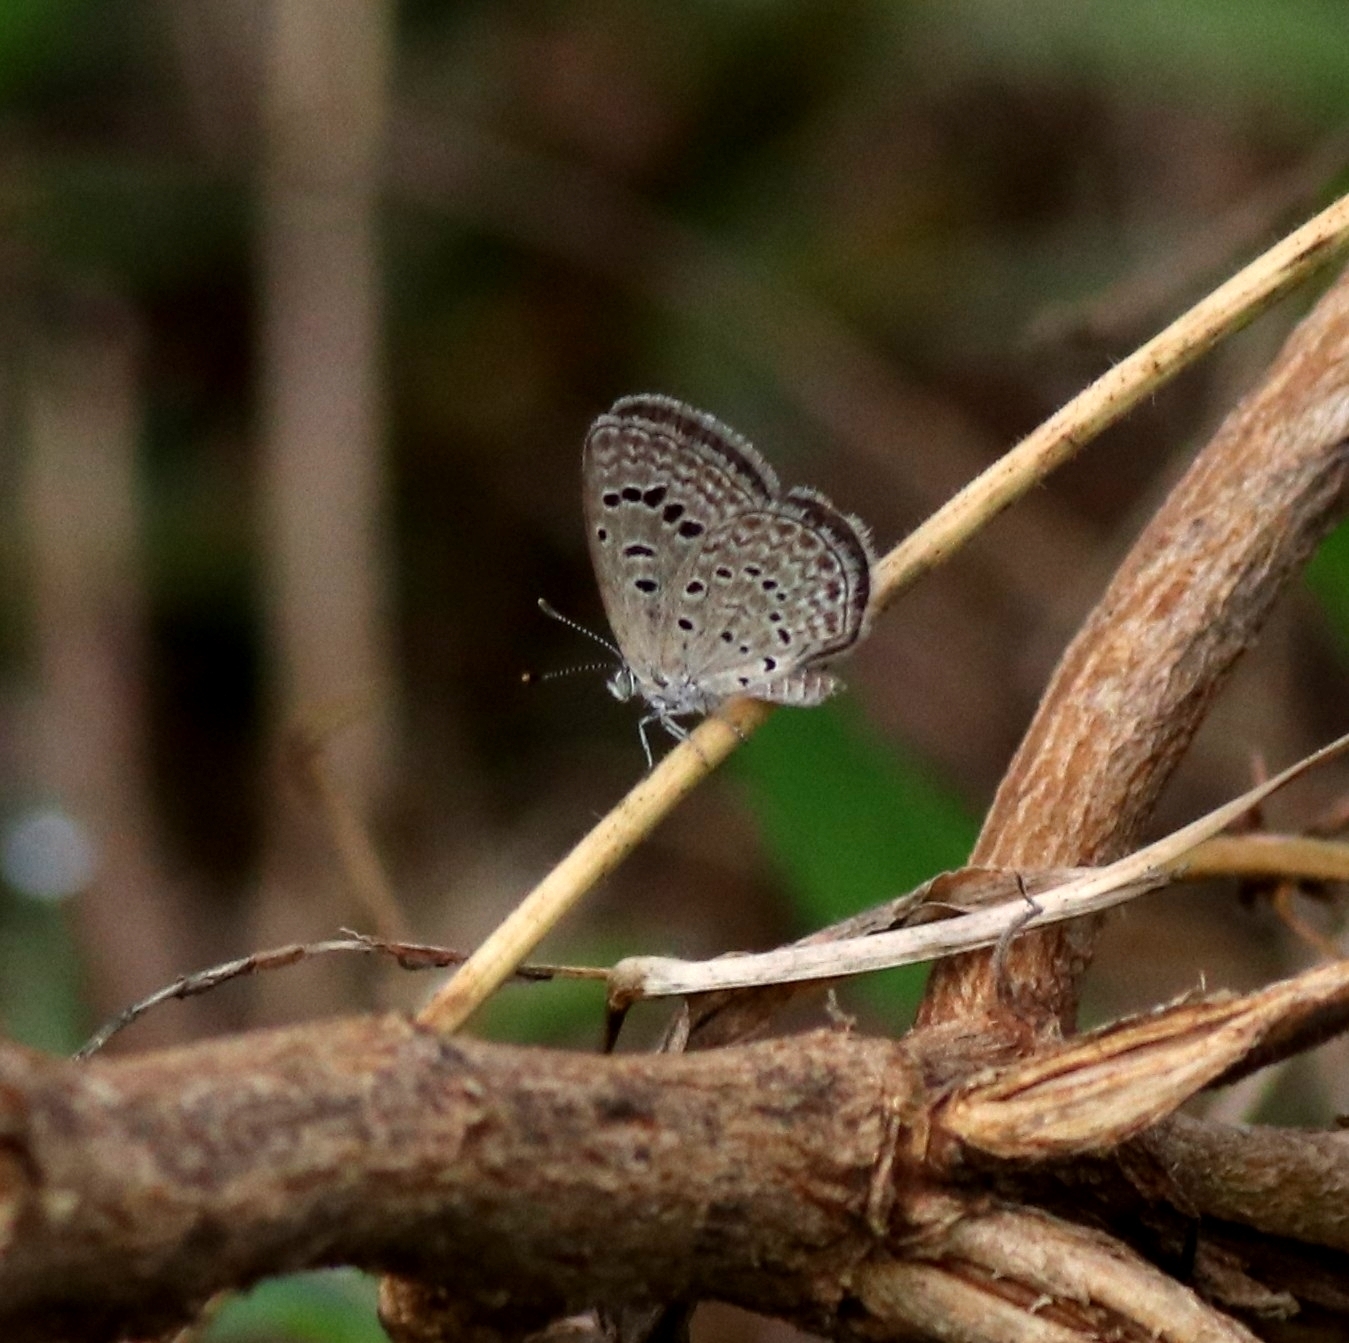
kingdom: Animalia
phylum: Arthropoda
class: Insecta
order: Lepidoptera
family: Lycaenidae
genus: Zizeeria
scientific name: Zizeeria karsandra
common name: Dark grass blue
